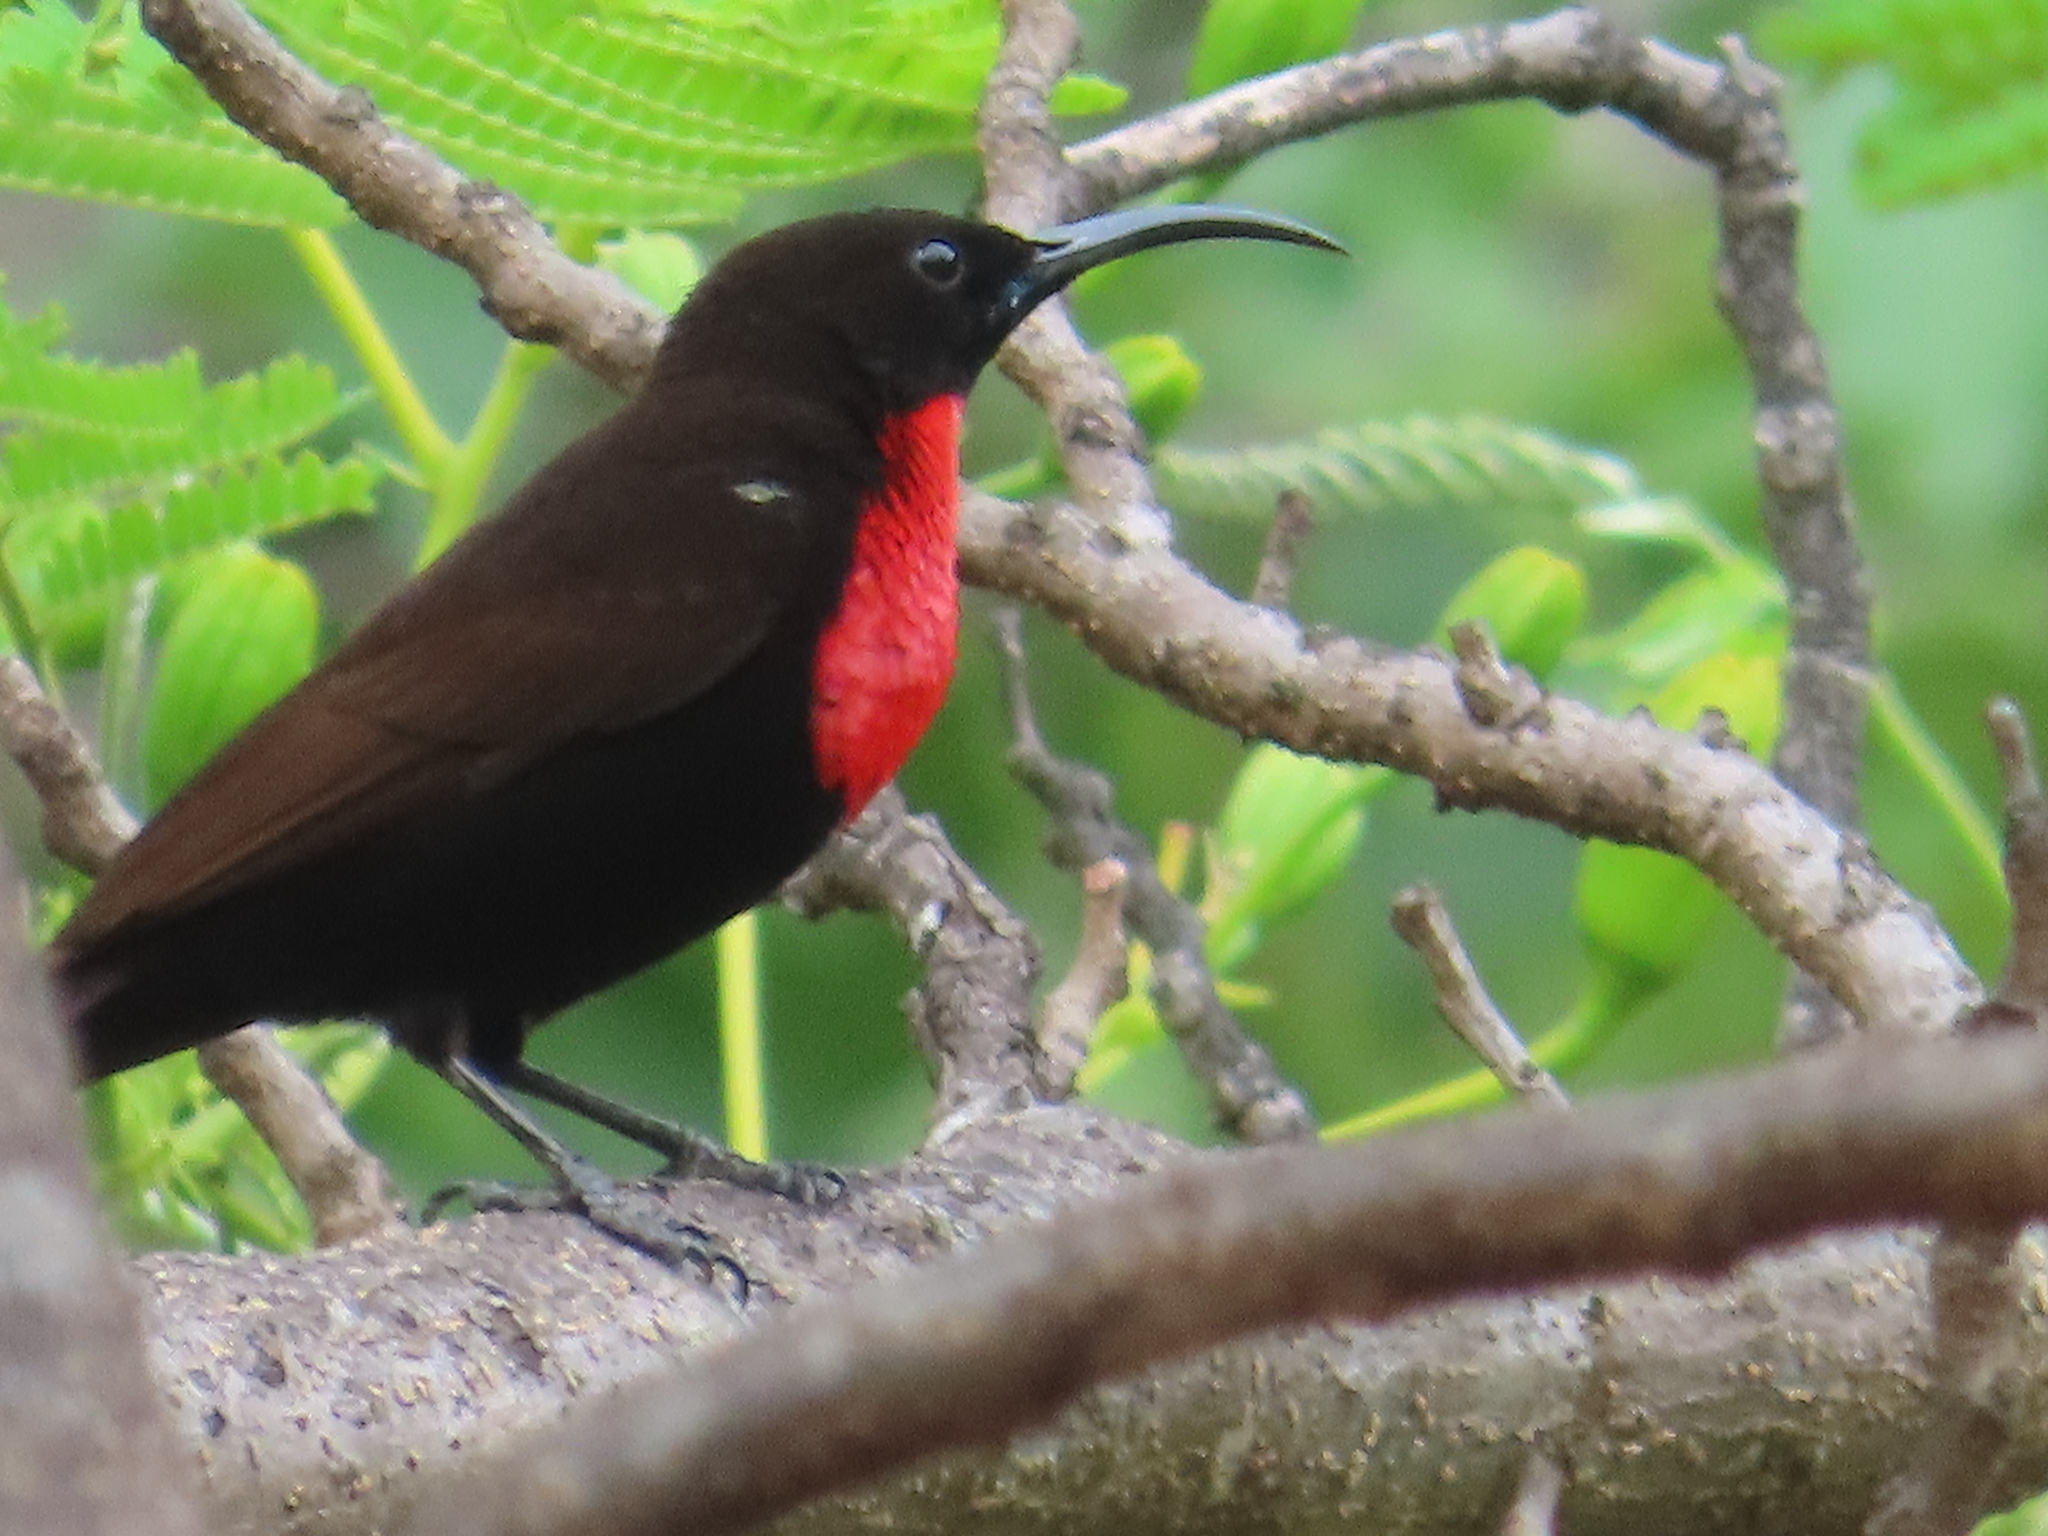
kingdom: Animalia
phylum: Chordata
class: Aves
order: Passeriformes
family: Nectariniidae
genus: Chalcomitra
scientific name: Chalcomitra senegalensis
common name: Scarlet-chested sunbird
